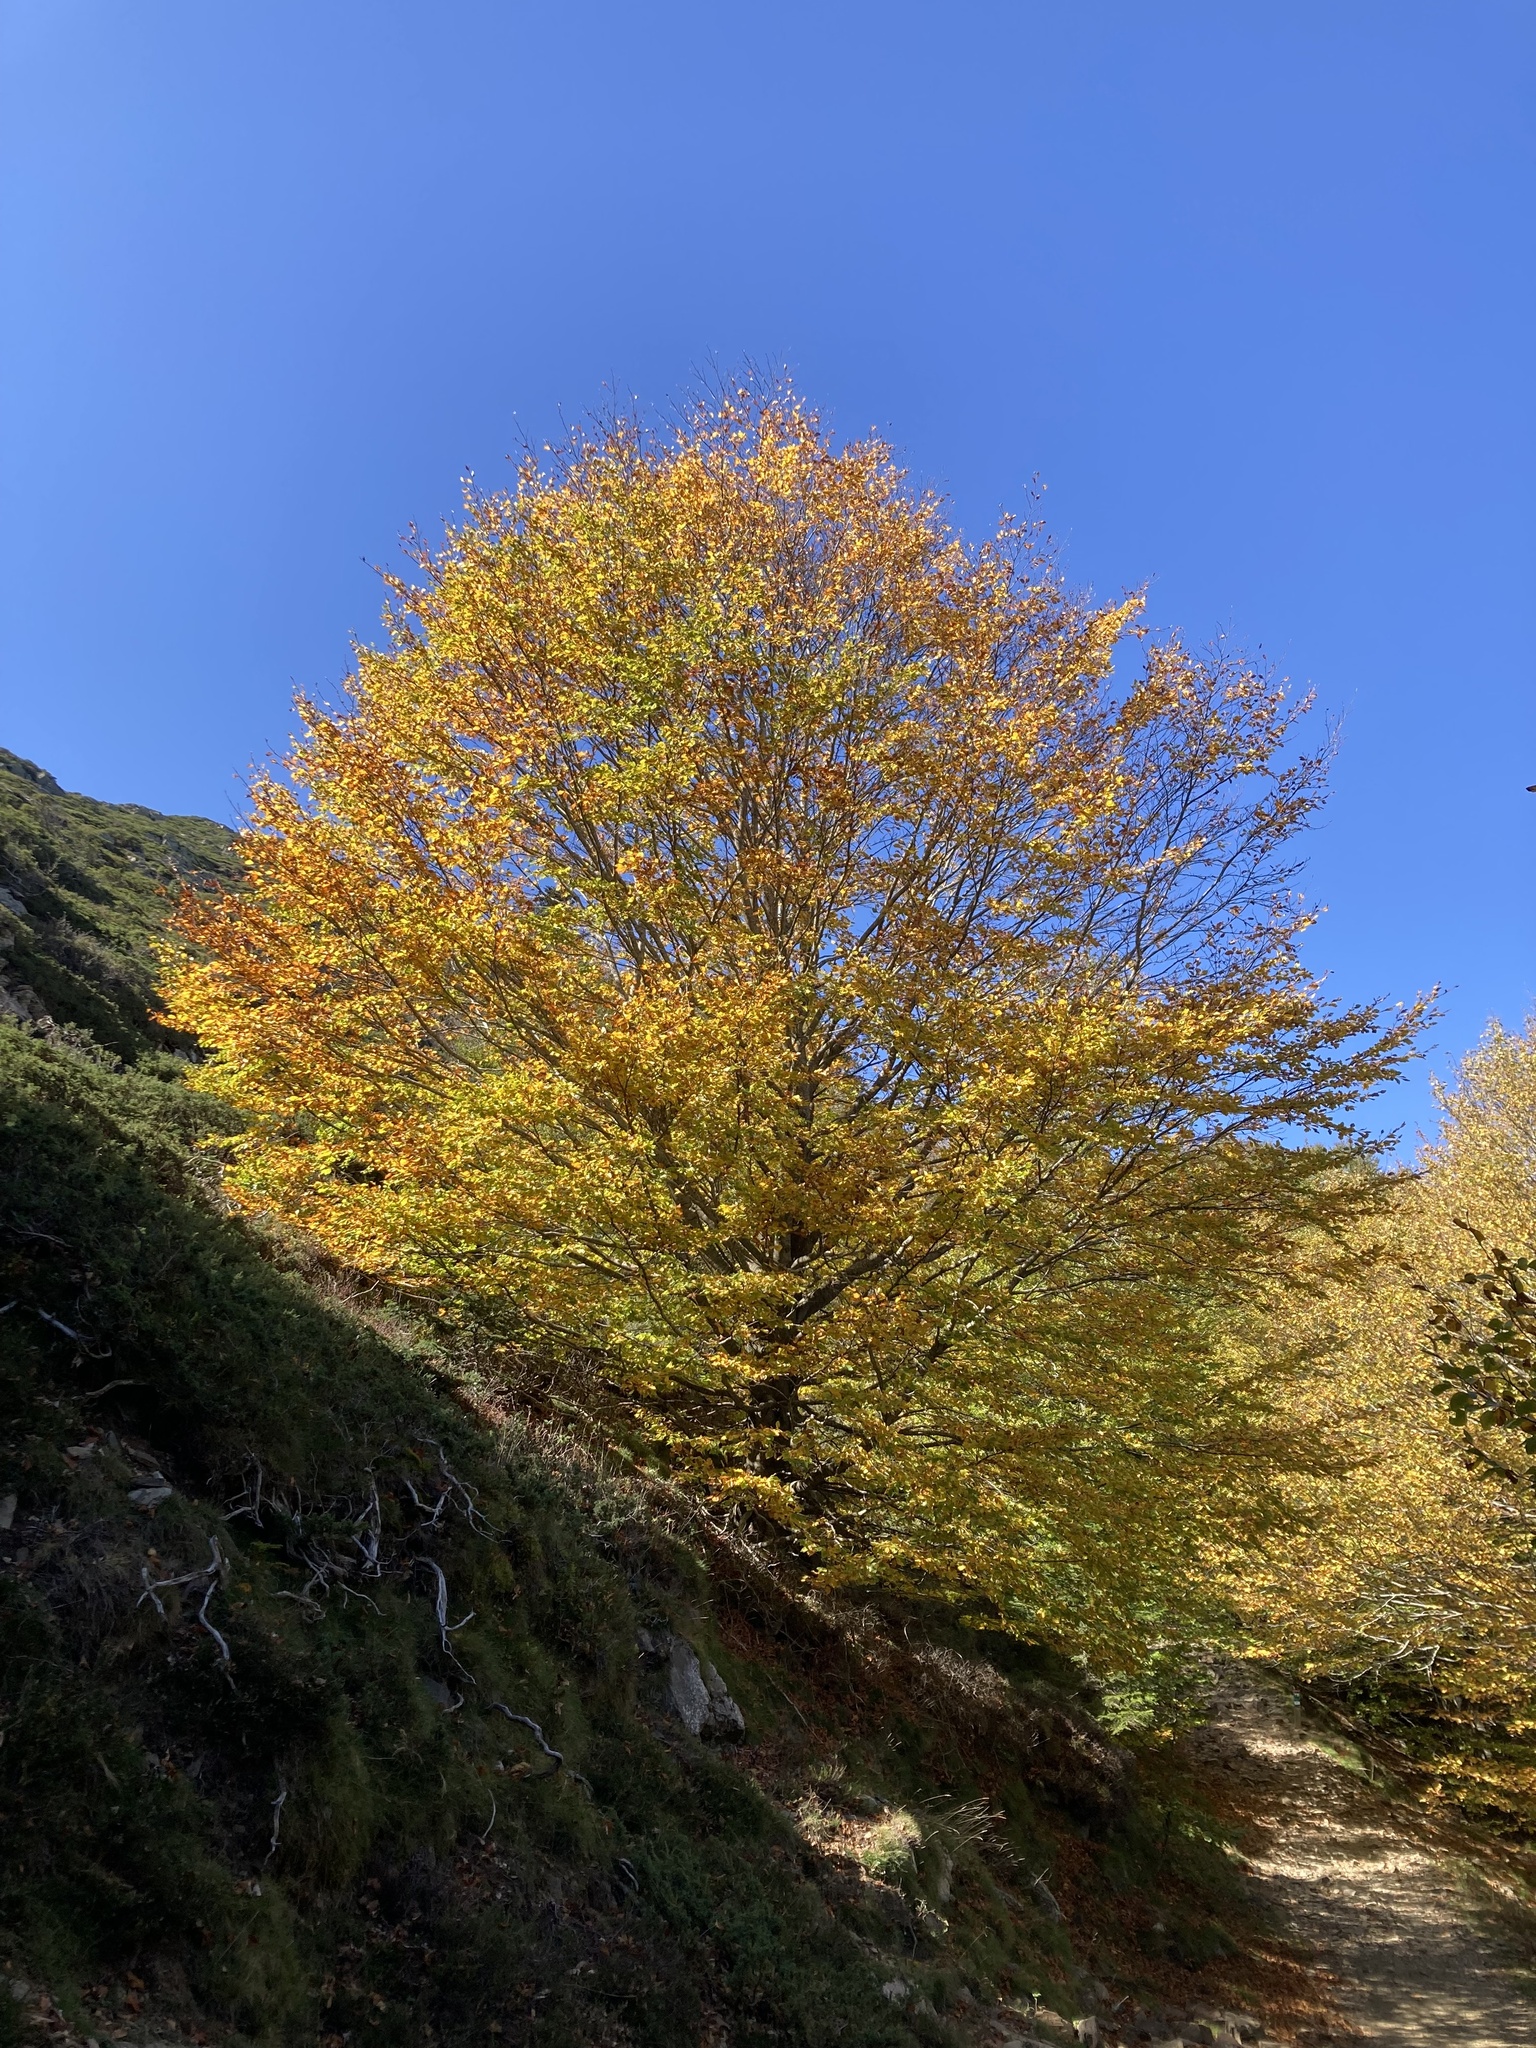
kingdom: Plantae
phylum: Tracheophyta
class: Magnoliopsida
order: Fagales
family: Fagaceae
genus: Fagus
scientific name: Fagus sylvatica
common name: Beech
